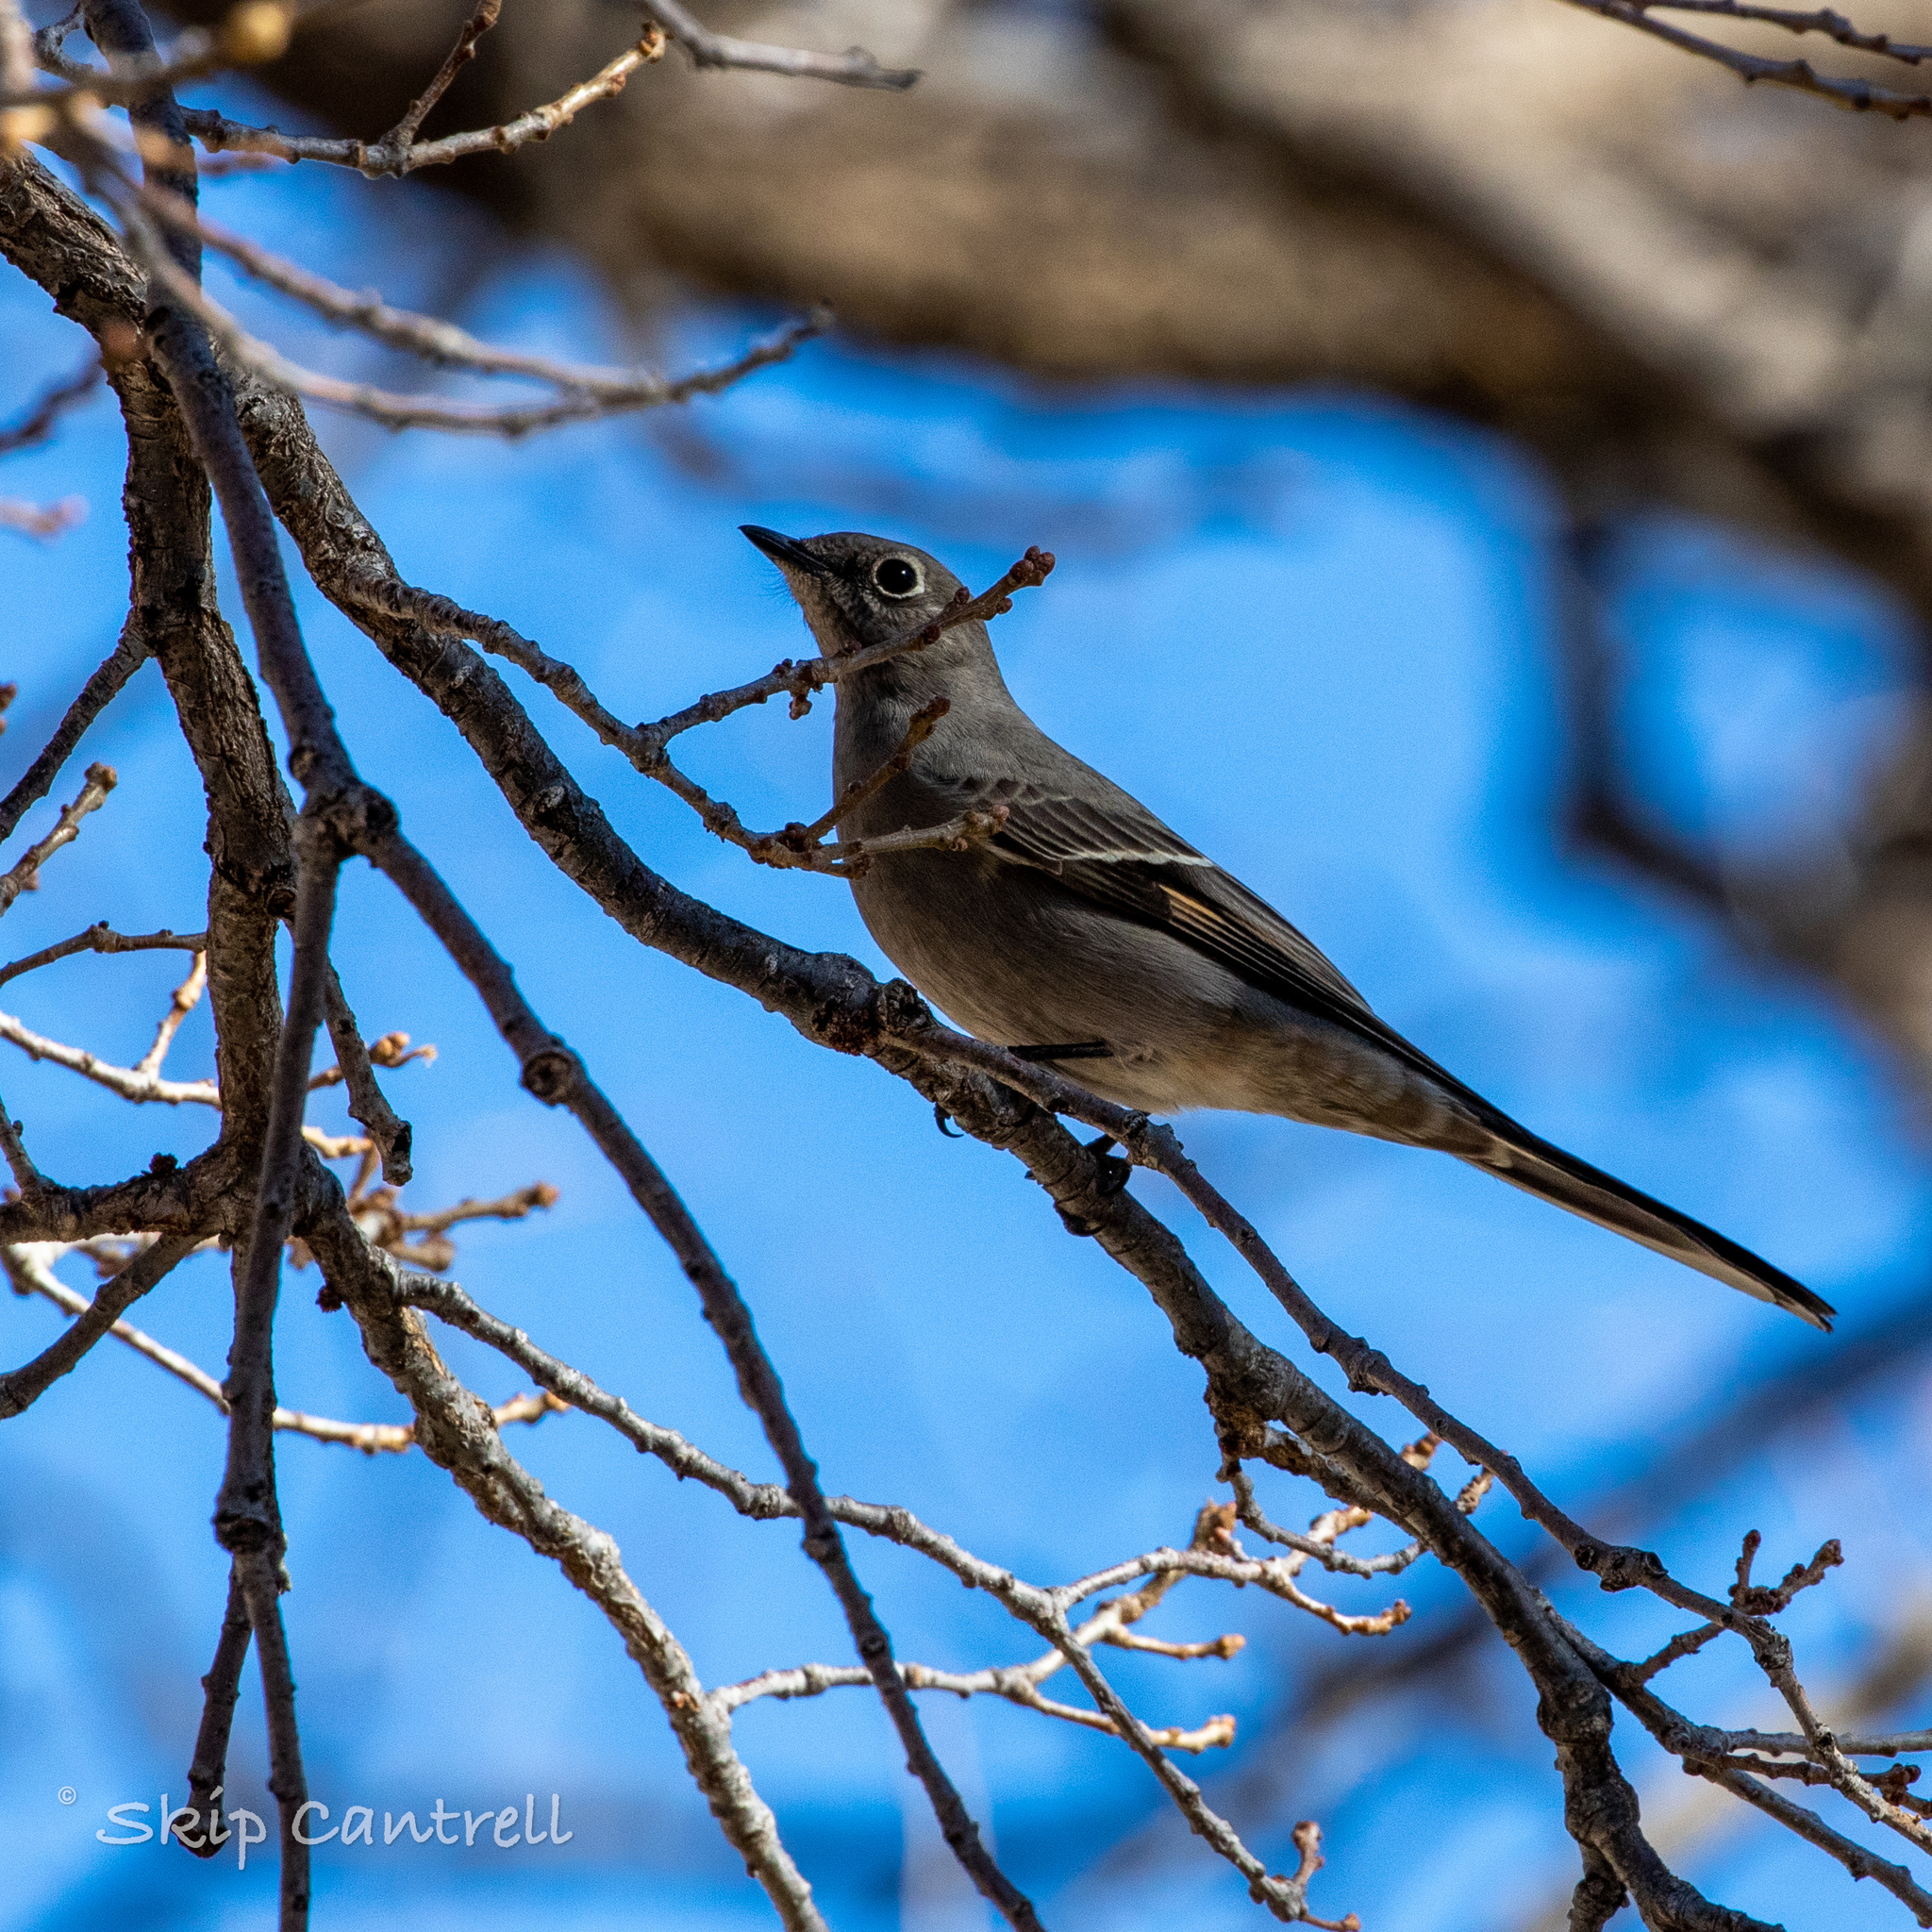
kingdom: Animalia
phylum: Chordata
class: Aves
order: Passeriformes
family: Turdidae
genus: Myadestes
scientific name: Myadestes townsendi
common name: Townsend's solitaire
